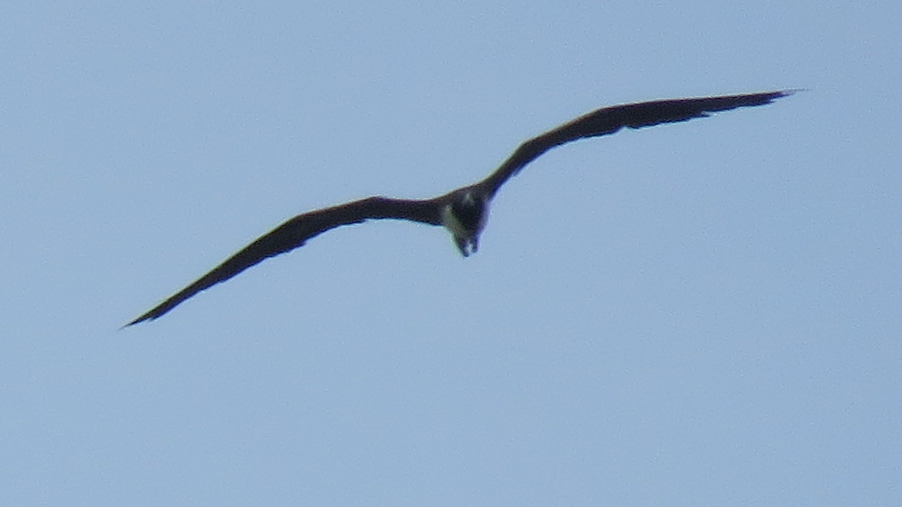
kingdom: Animalia
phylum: Chordata
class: Aves
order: Suliformes
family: Fregatidae
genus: Fregata
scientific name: Fregata magnificens
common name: Magnificent frigatebird
